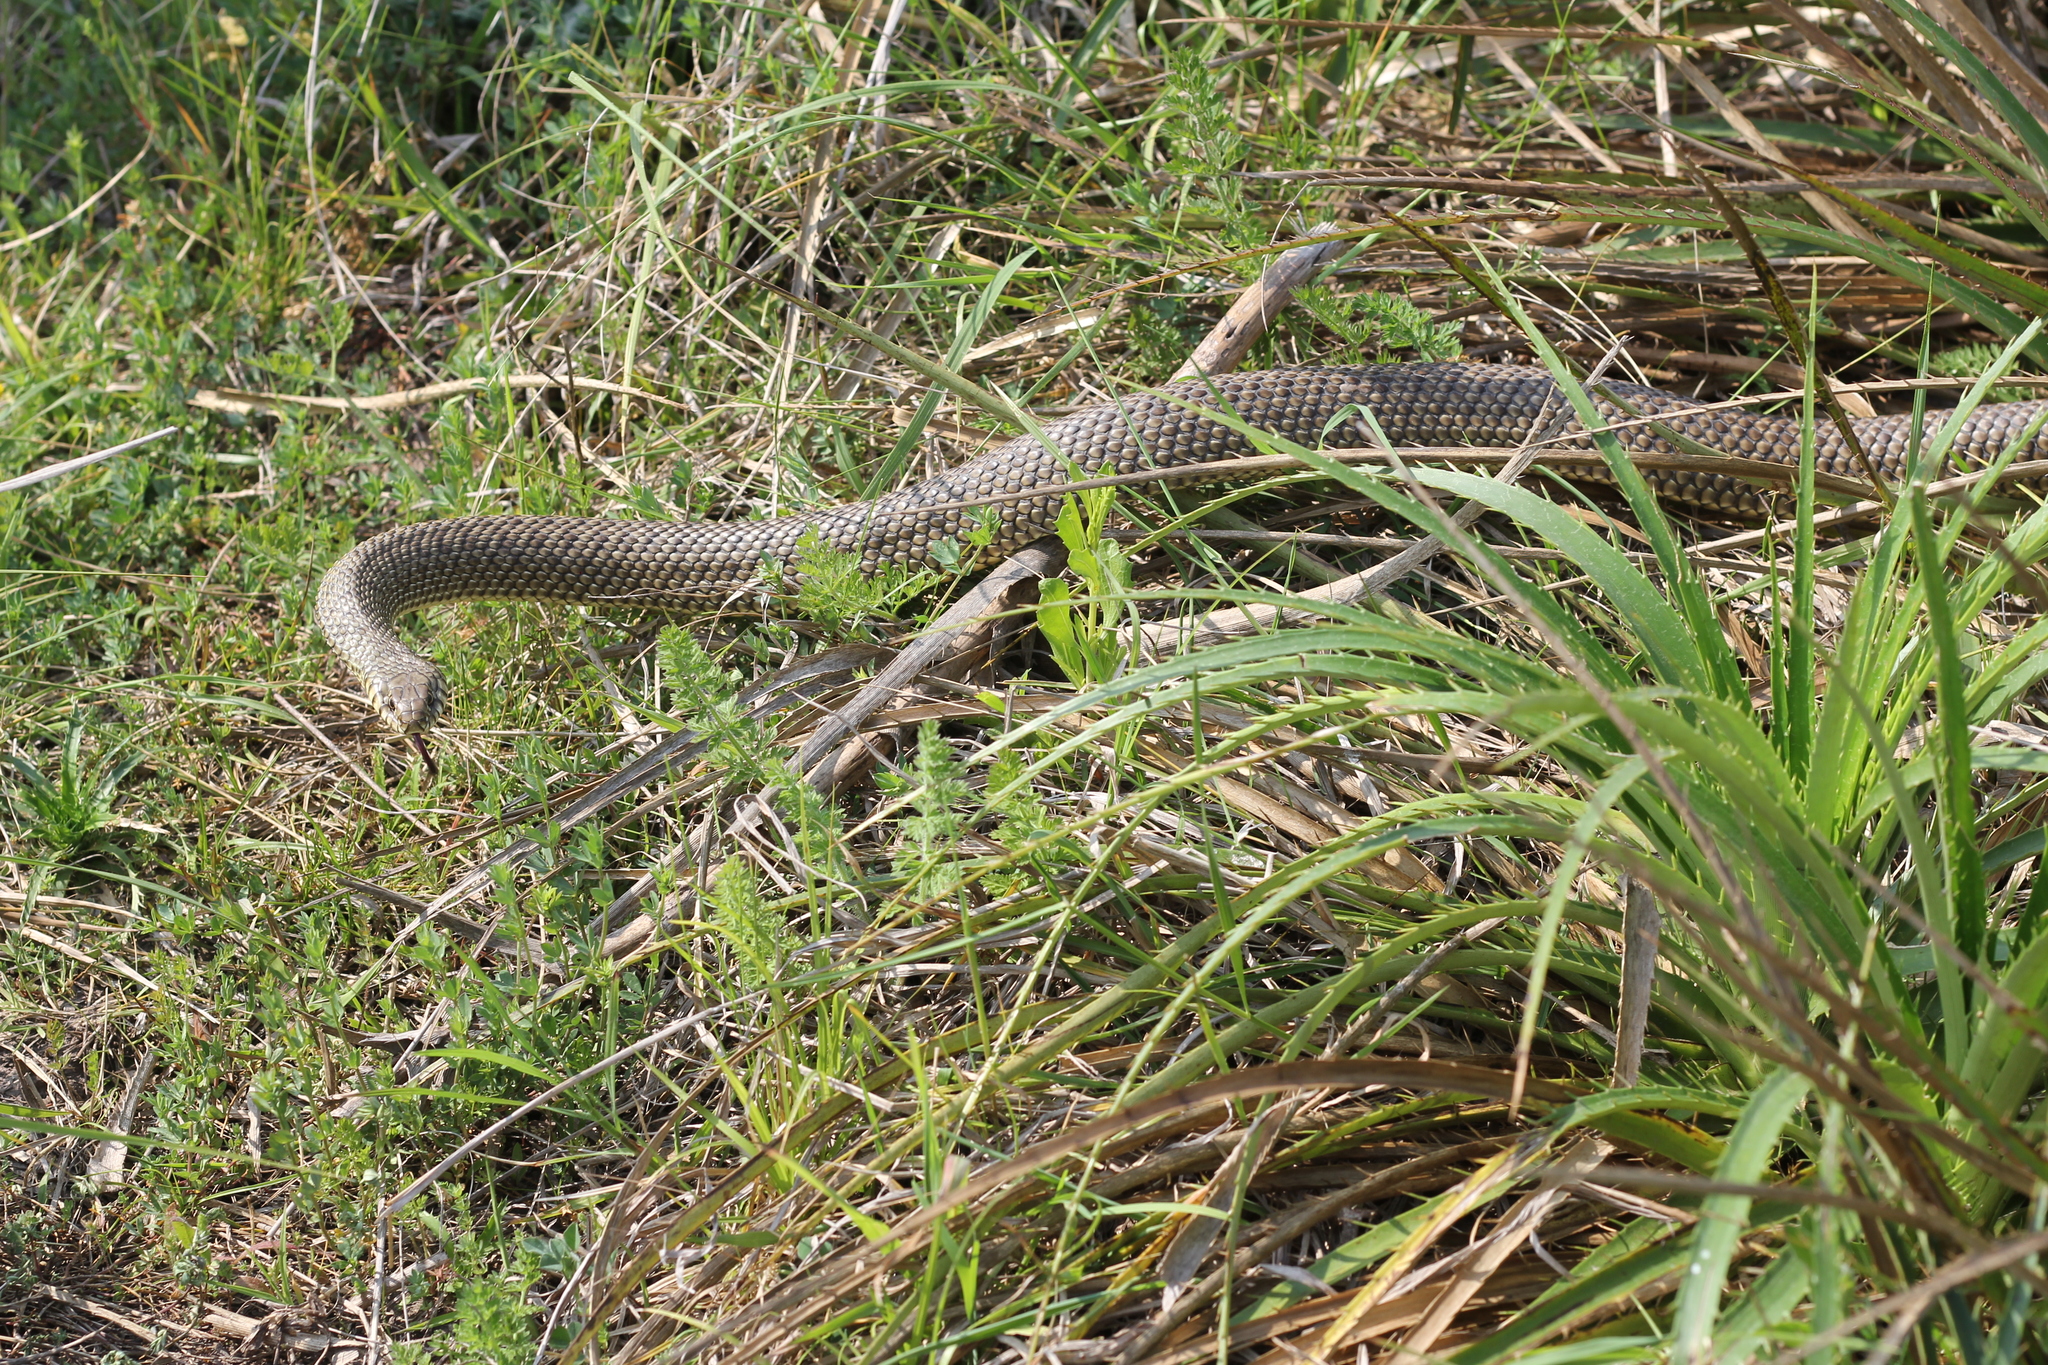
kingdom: Animalia
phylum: Chordata
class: Squamata
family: Colubridae
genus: Philodryas
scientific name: Philodryas patagoniensis
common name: Patagonia green racer
